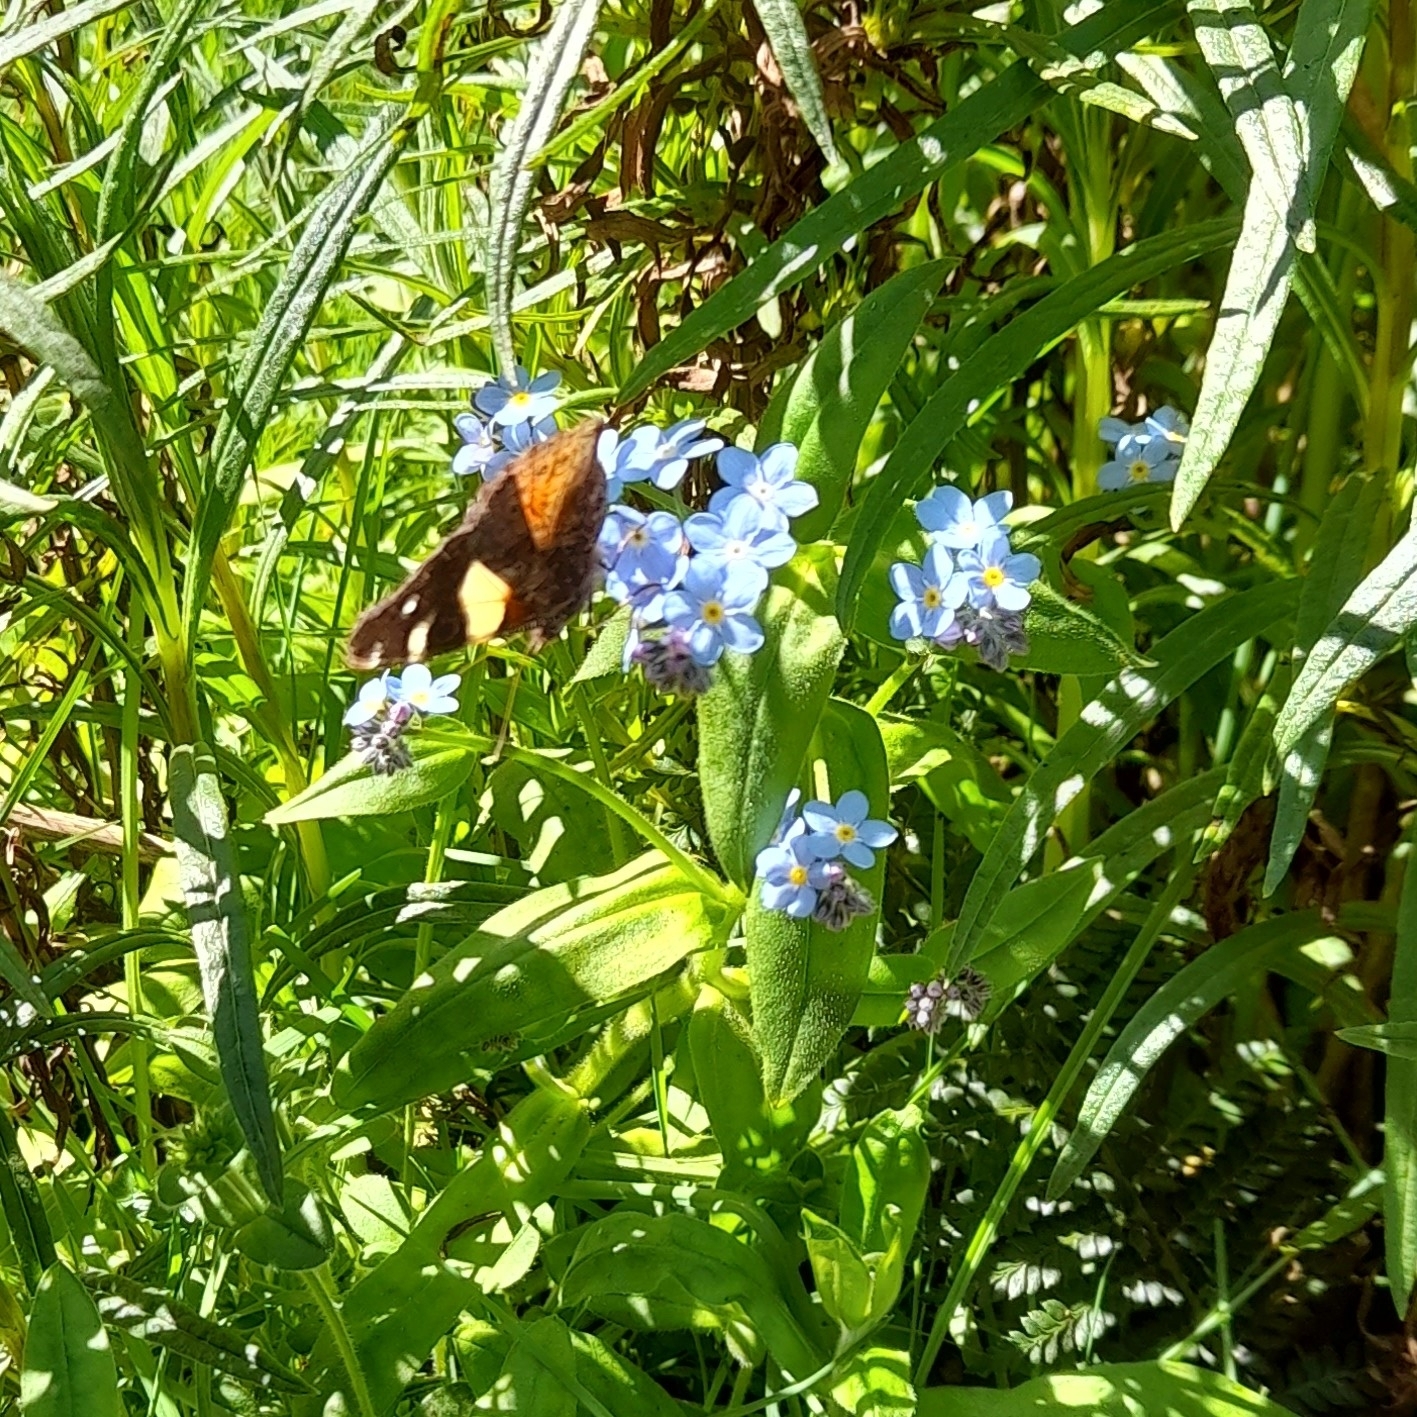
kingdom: Animalia
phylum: Arthropoda
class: Insecta
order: Lepidoptera
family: Nymphalidae
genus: Vanessa
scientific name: Vanessa itea
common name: Yellow admiral
